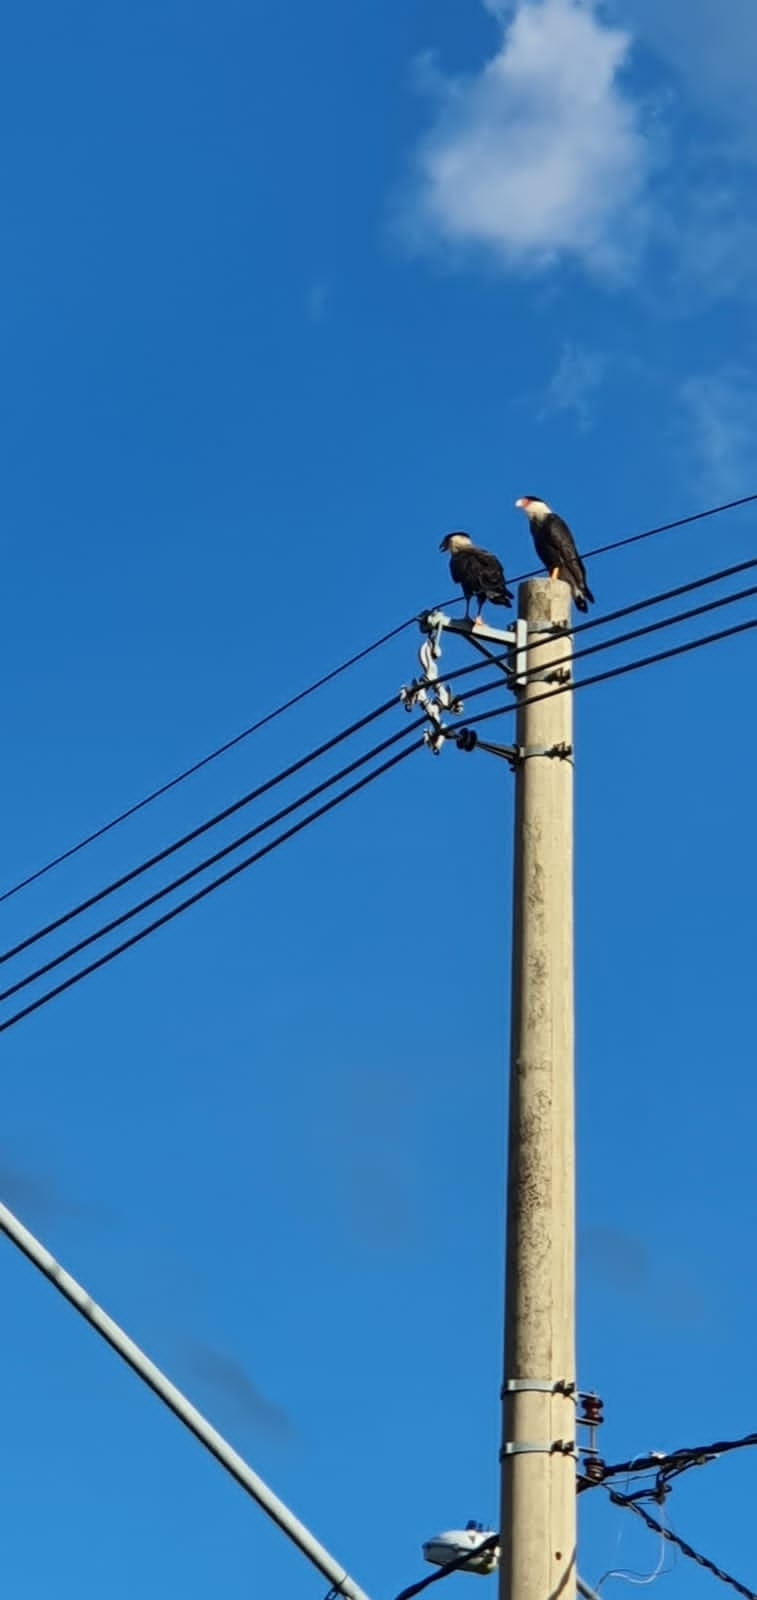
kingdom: Animalia
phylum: Chordata
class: Aves
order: Falconiformes
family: Falconidae
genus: Caracara
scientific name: Caracara plancus
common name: Southern caracara
